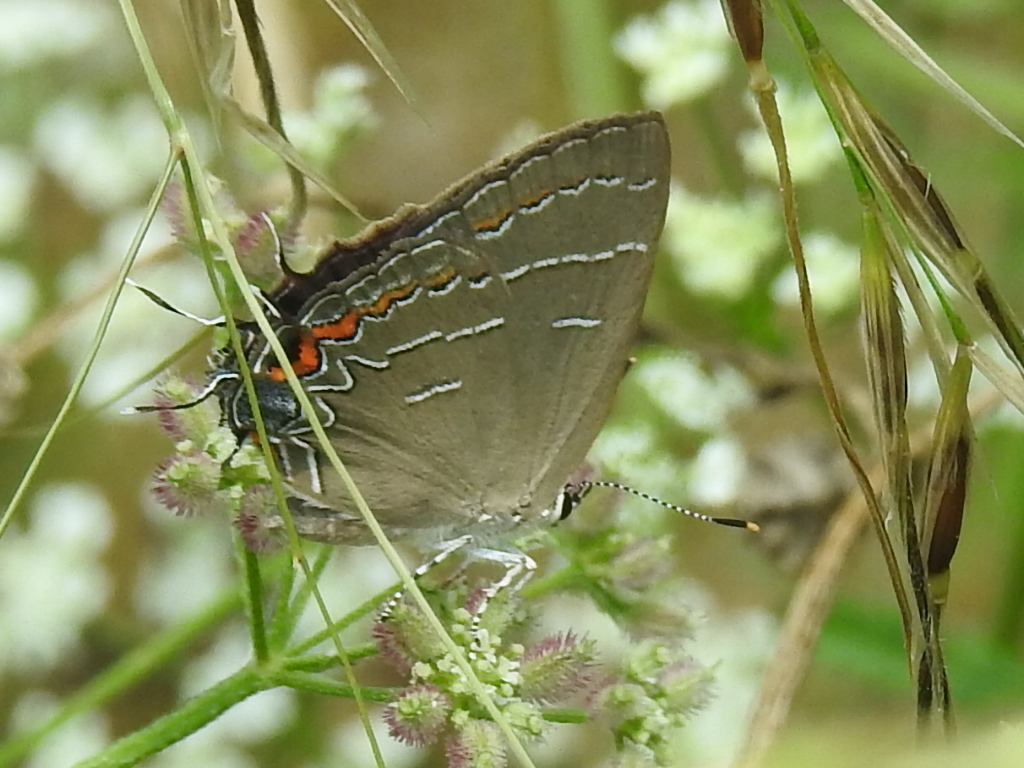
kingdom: Animalia
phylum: Arthropoda
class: Insecta
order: Lepidoptera
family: Lycaenidae
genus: Phaeostrymon
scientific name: Phaeostrymon alcestis
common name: Soapberry hairstreak
